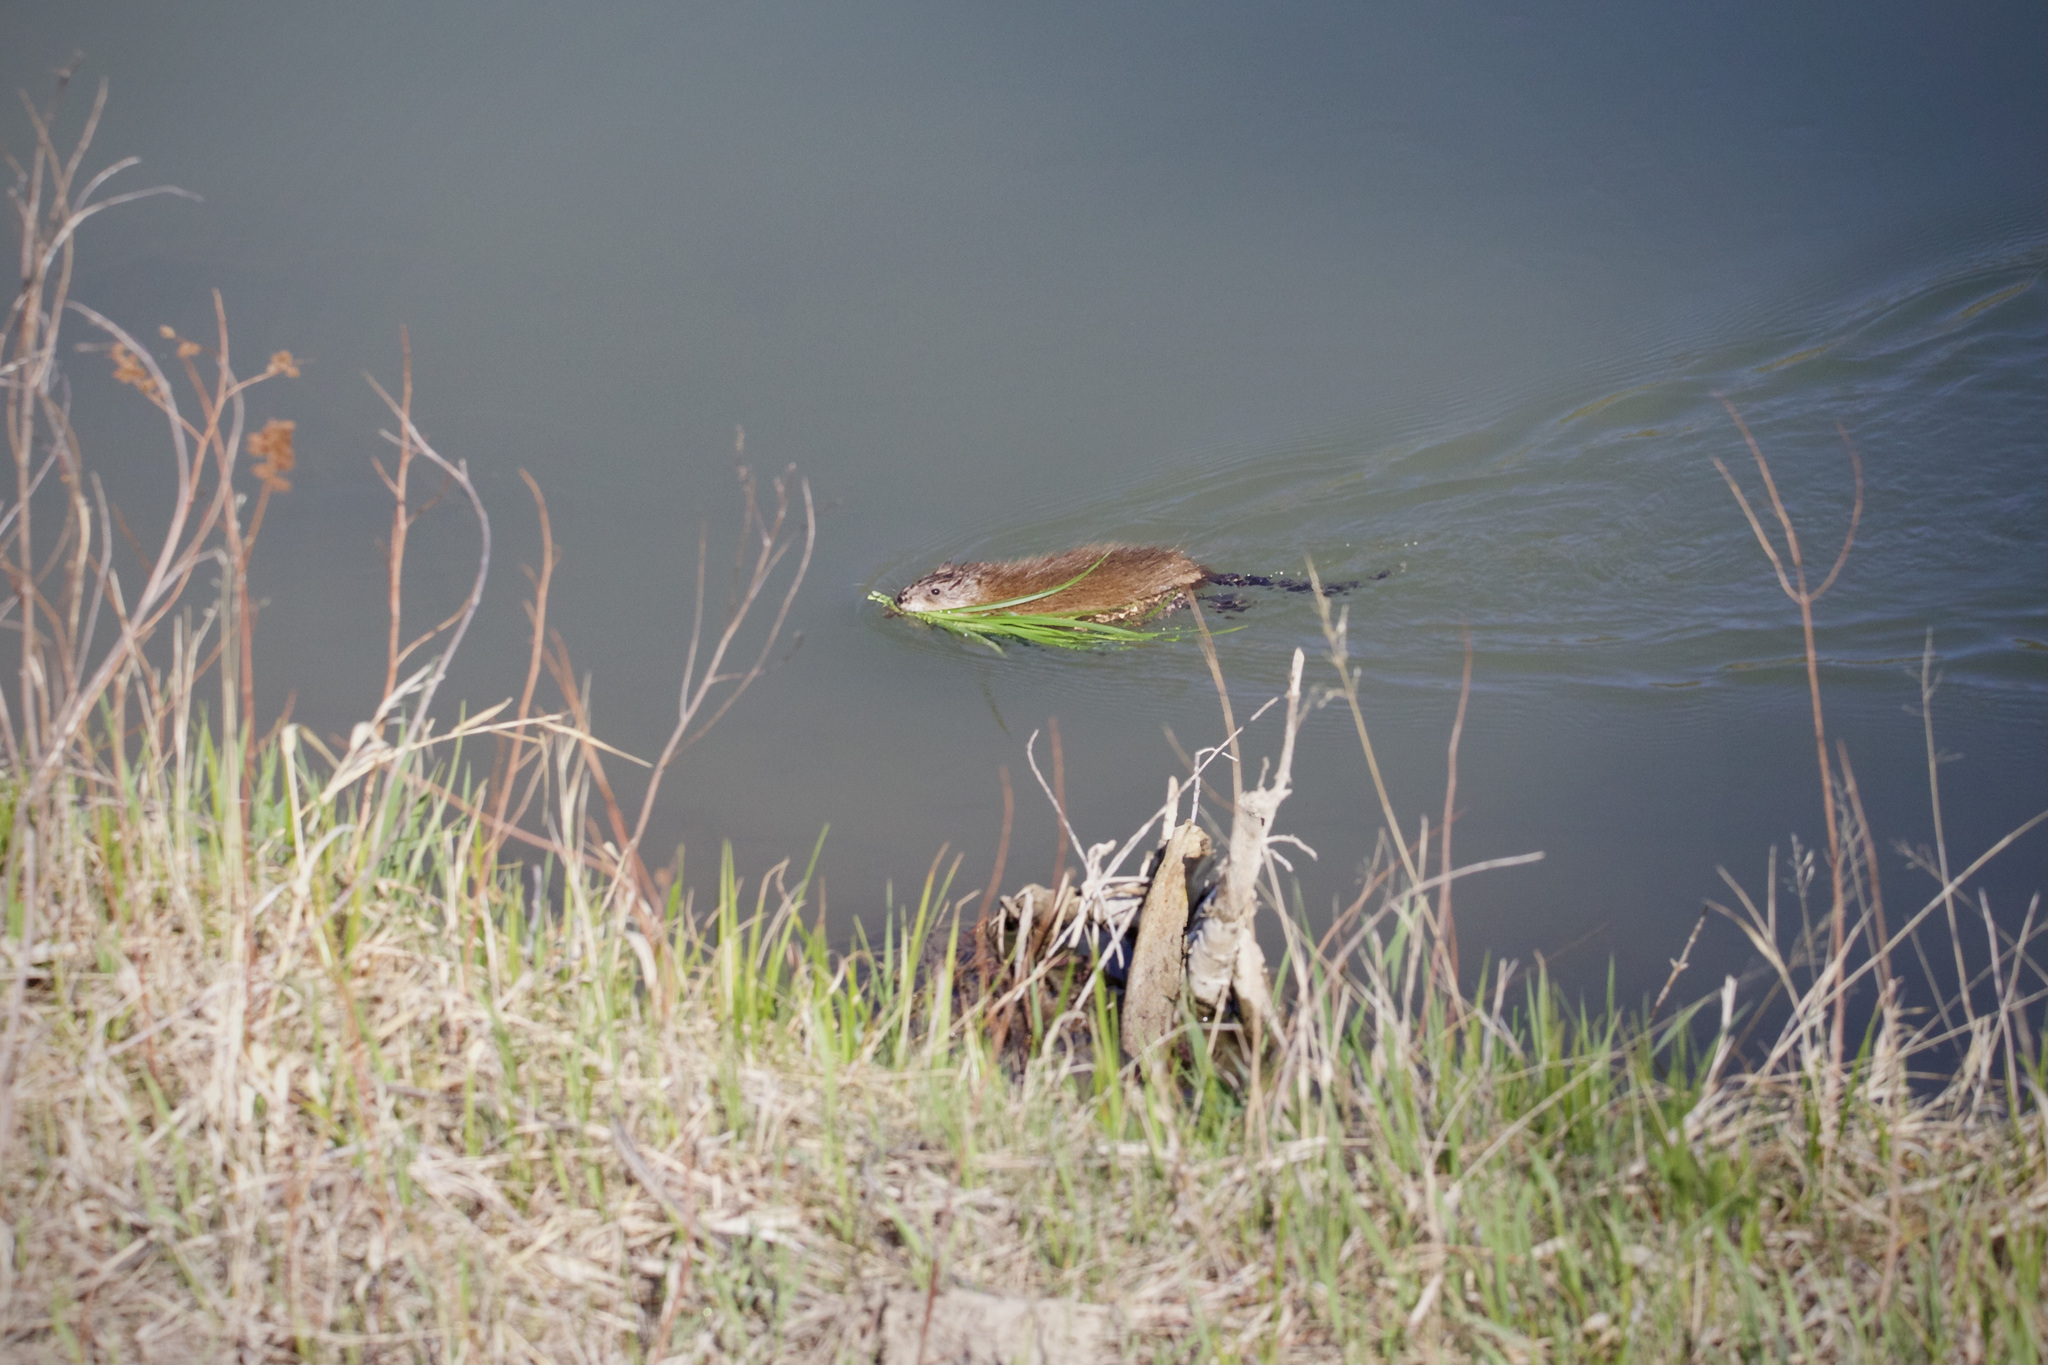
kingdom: Animalia
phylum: Chordata
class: Mammalia
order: Rodentia
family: Cricetidae
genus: Ondatra
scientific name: Ondatra zibethicus
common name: Muskrat
